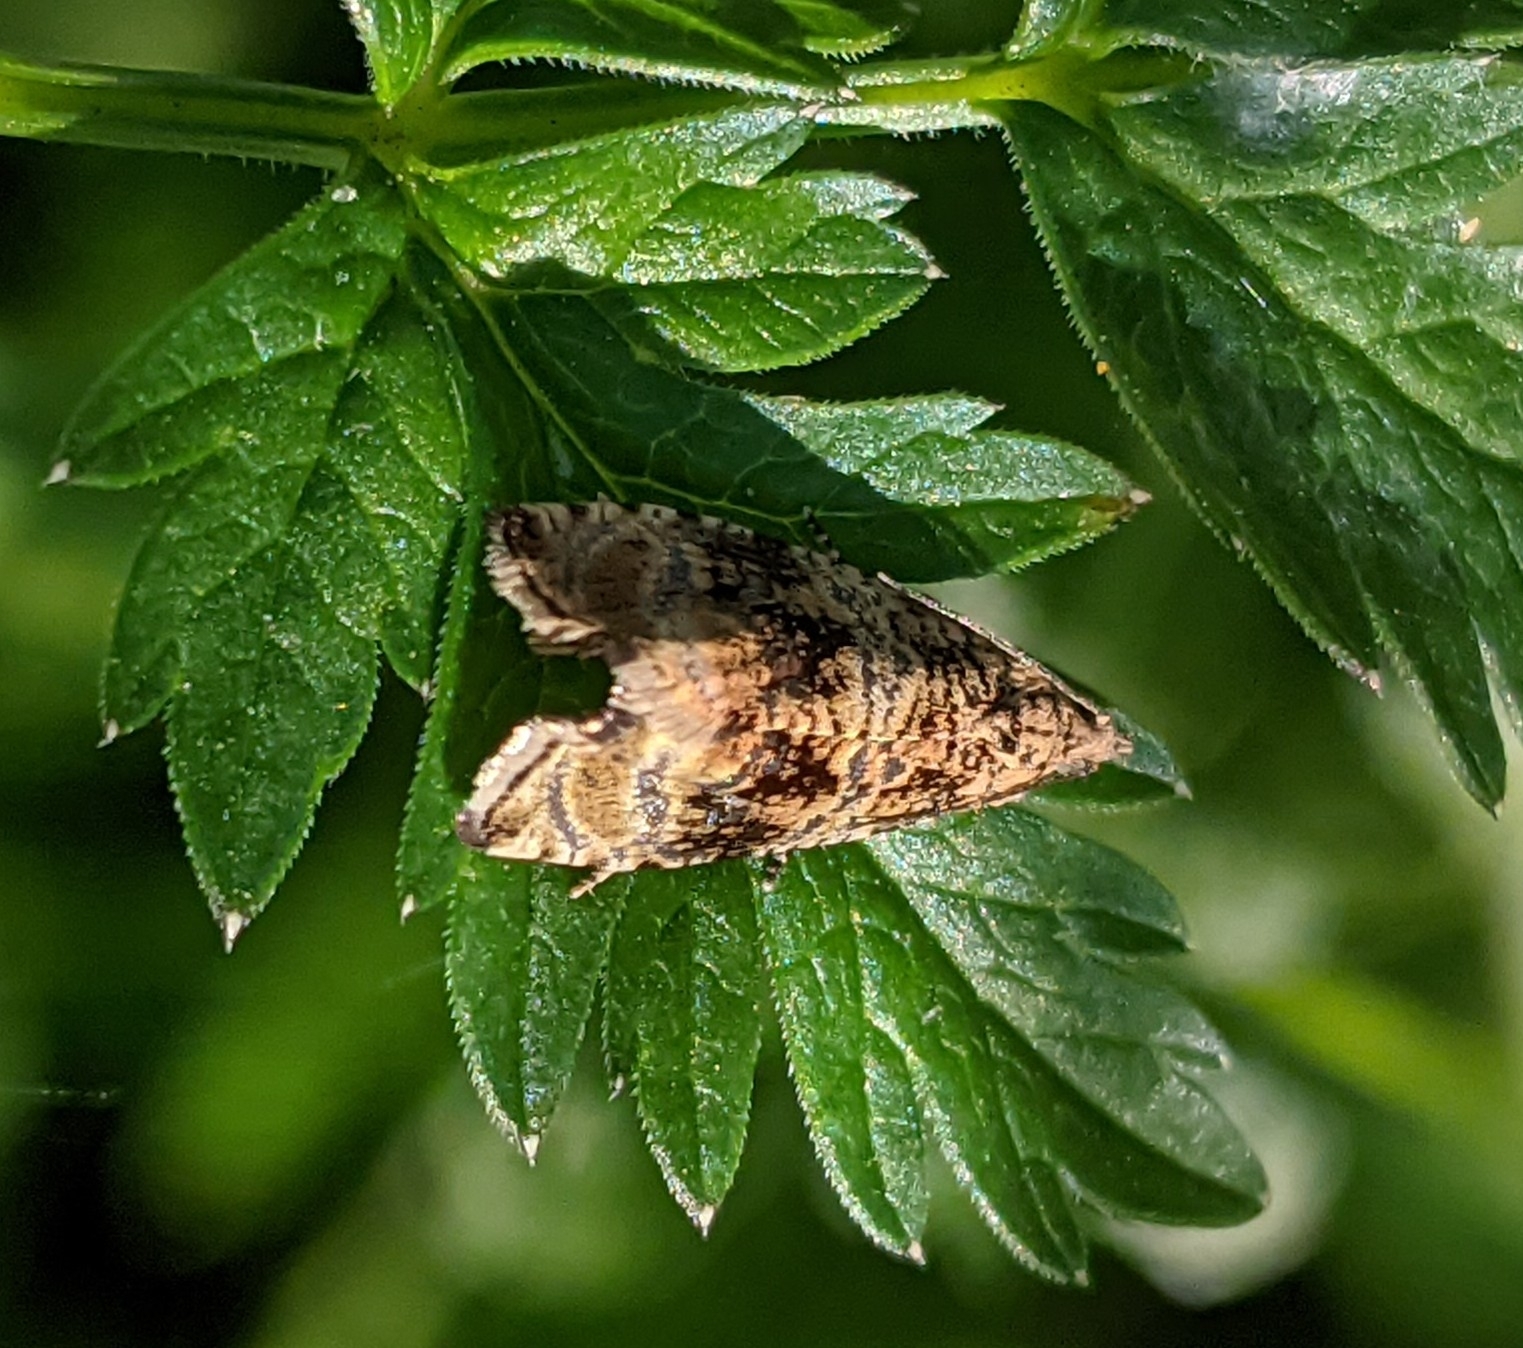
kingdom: Animalia
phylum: Arthropoda
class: Insecta
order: Lepidoptera
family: Tortricidae
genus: Syricoris
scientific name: Syricoris lacunana
